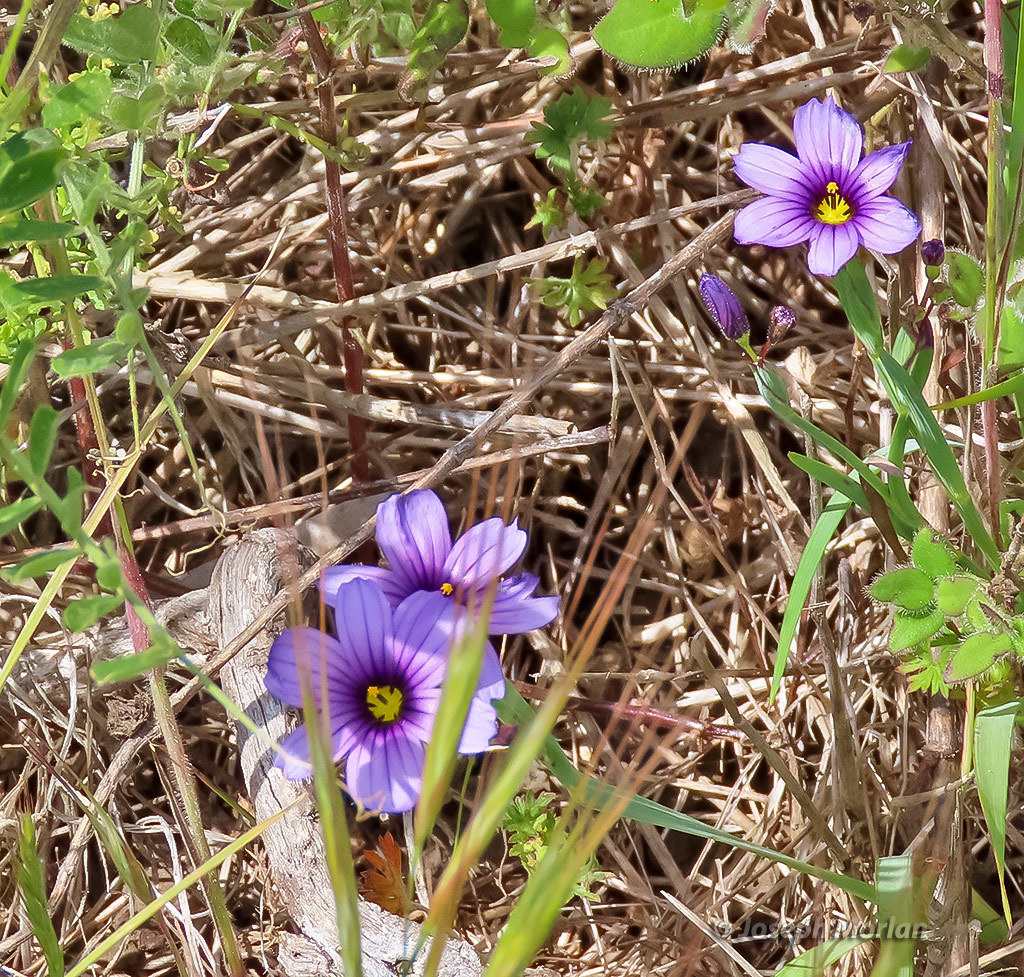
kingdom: Plantae
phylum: Tracheophyta
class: Liliopsida
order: Asparagales
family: Iridaceae
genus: Sisyrinchium
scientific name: Sisyrinchium bellum
